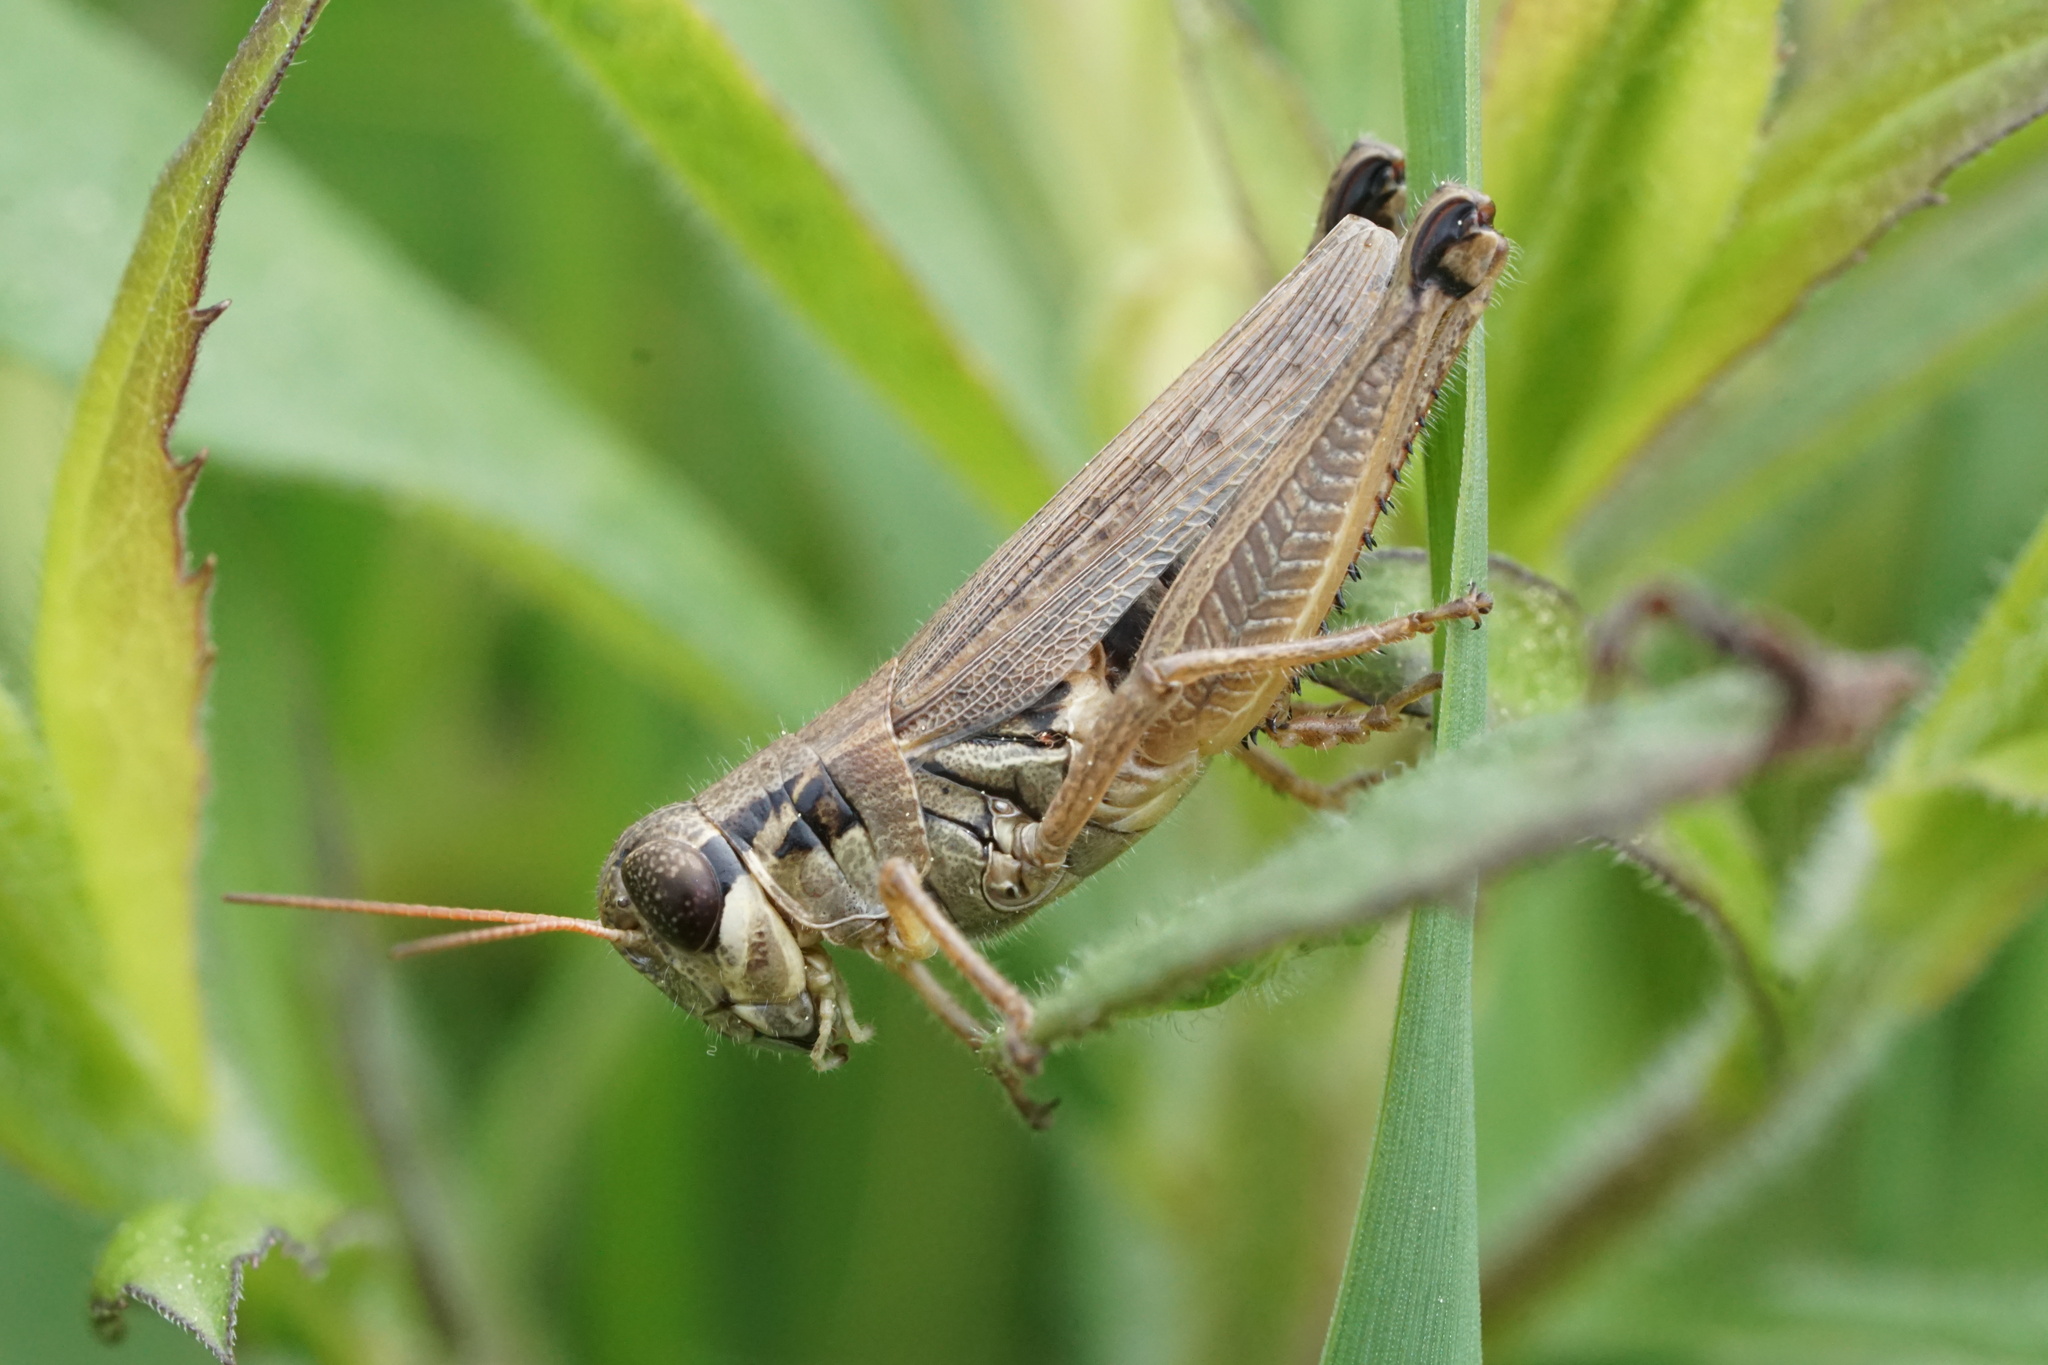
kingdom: Animalia
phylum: Arthropoda
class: Insecta
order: Orthoptera
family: Acrididae
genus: Melanoplus
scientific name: Melanoplus borealis
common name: Northern grasshopper
